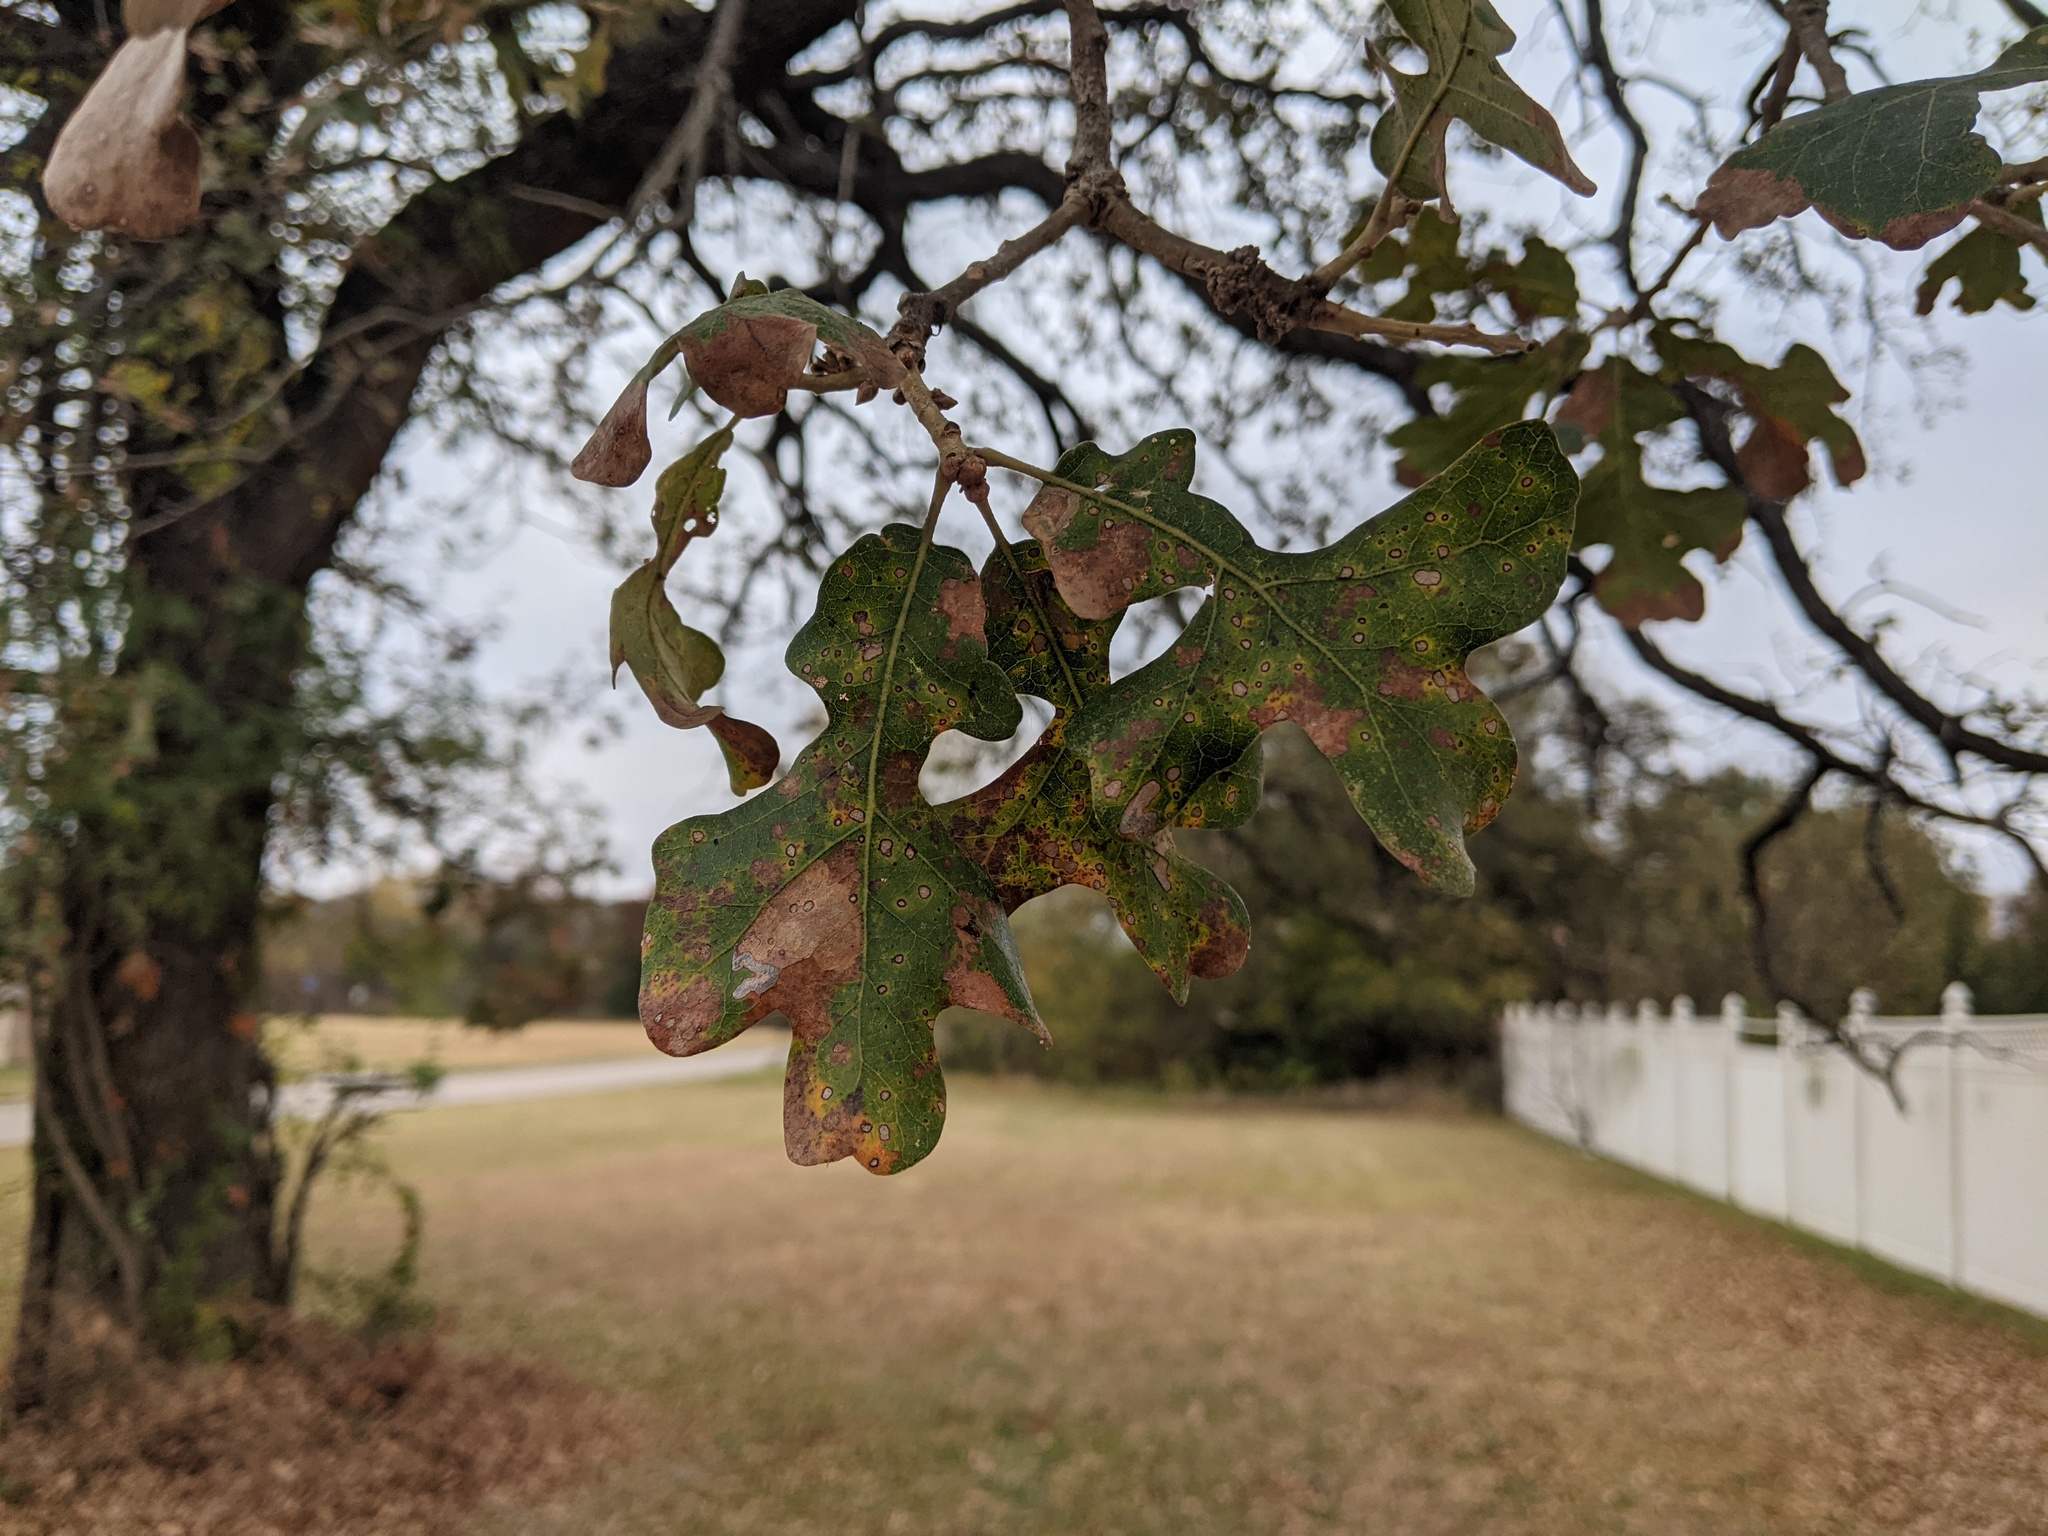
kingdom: Plantae
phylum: Tracheophyta
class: Magnoliopsida
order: Fagales
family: Fagaceae
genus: Quercus
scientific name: Quercus stellata
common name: Post oak
